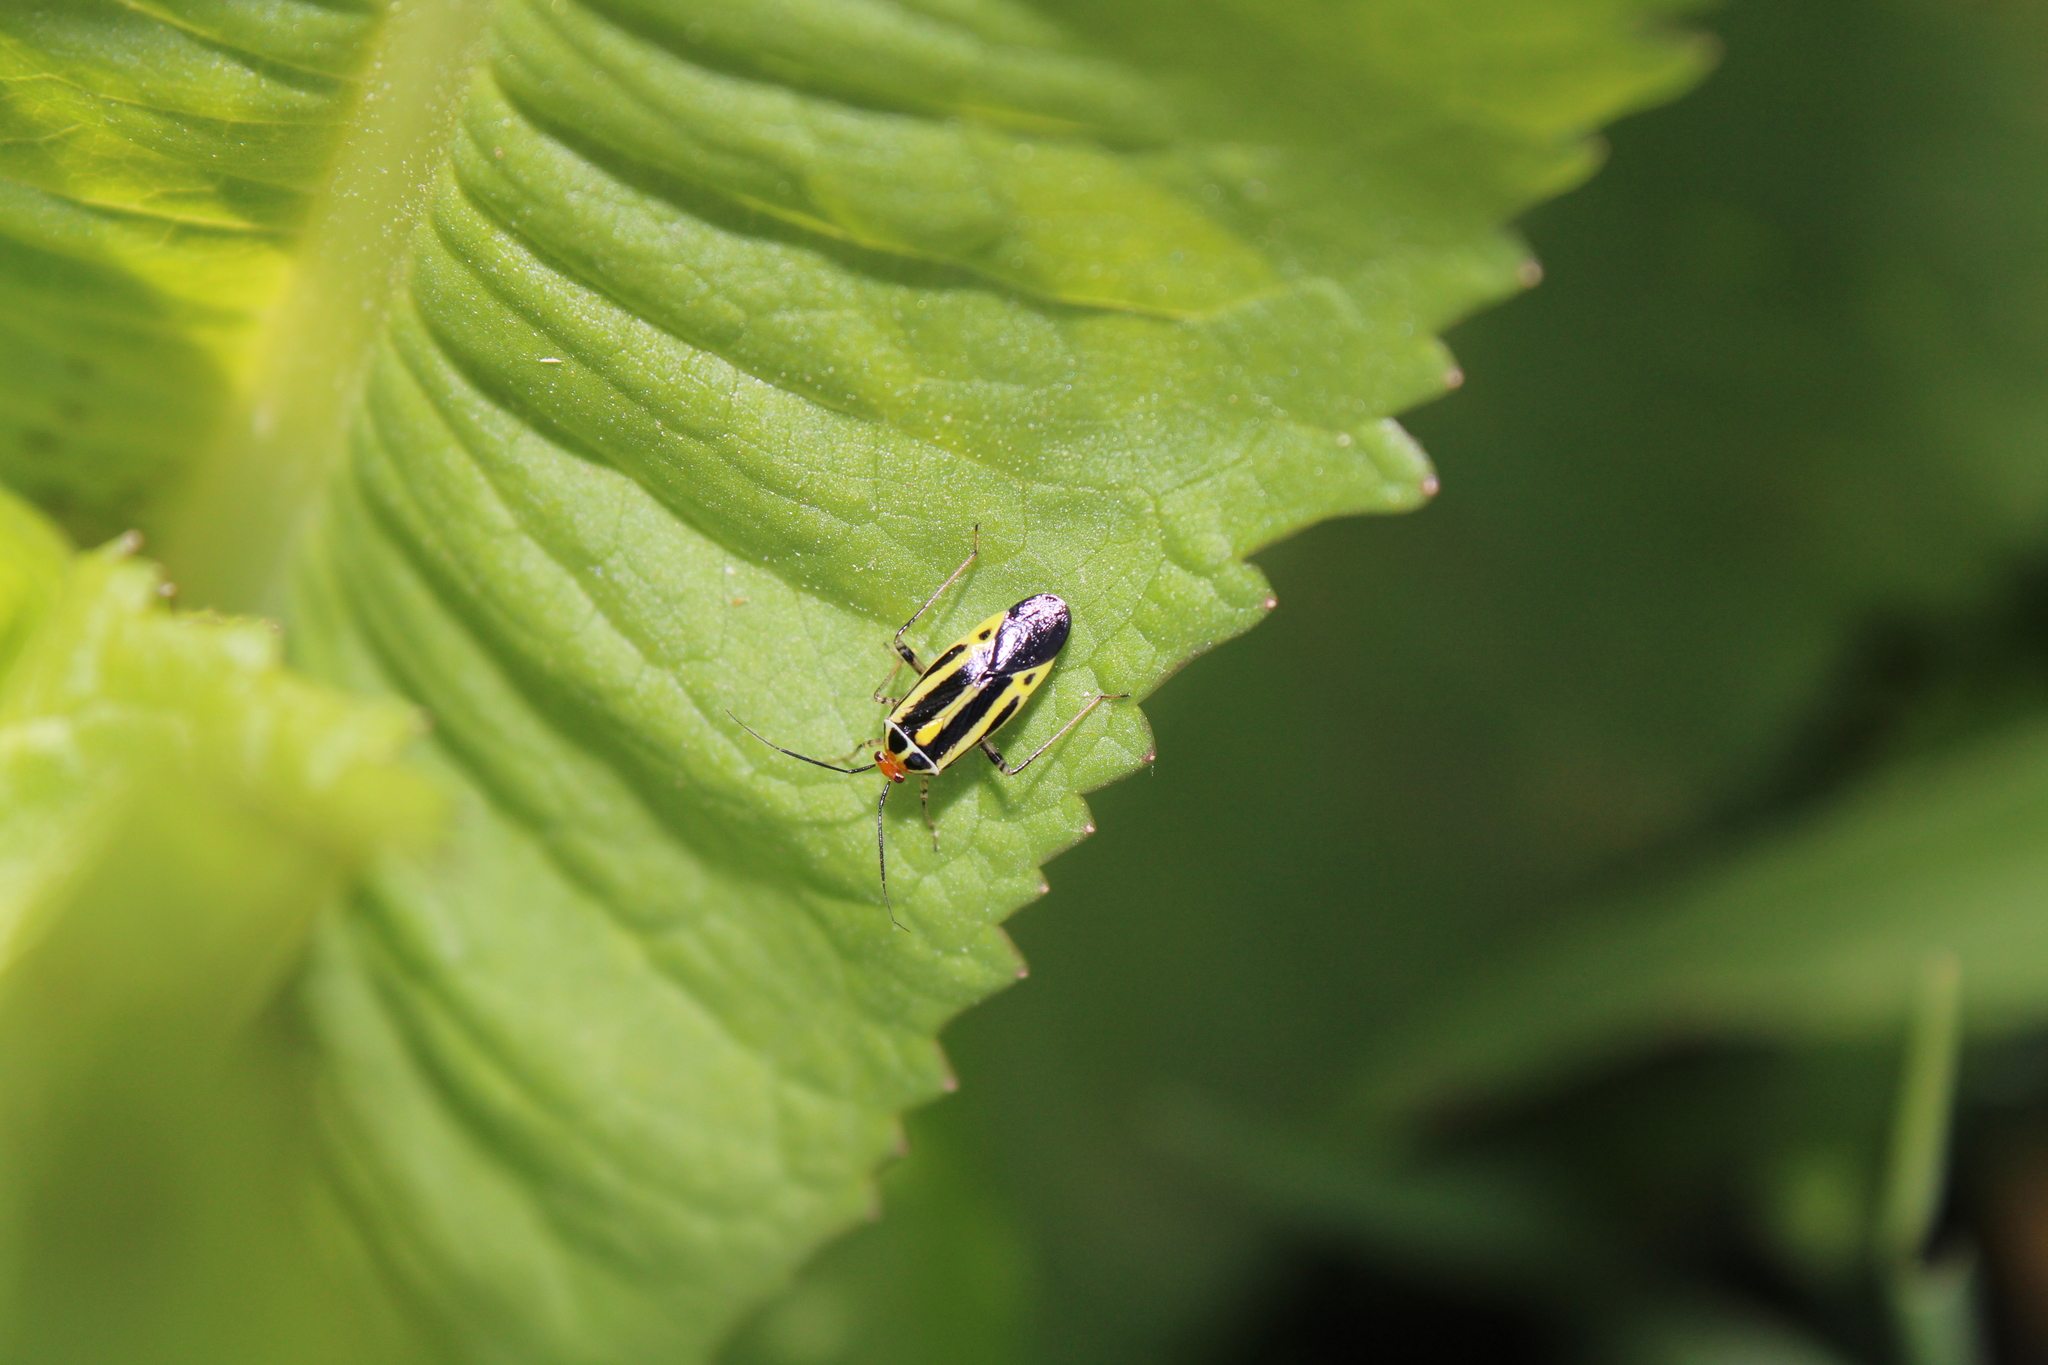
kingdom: Animalia
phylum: Arthropoda
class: Insecta
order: Hemiptera
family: Miridae
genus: Poecilocapsus
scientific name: Poecilocapsus lineatus
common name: Four-lined plant bug
